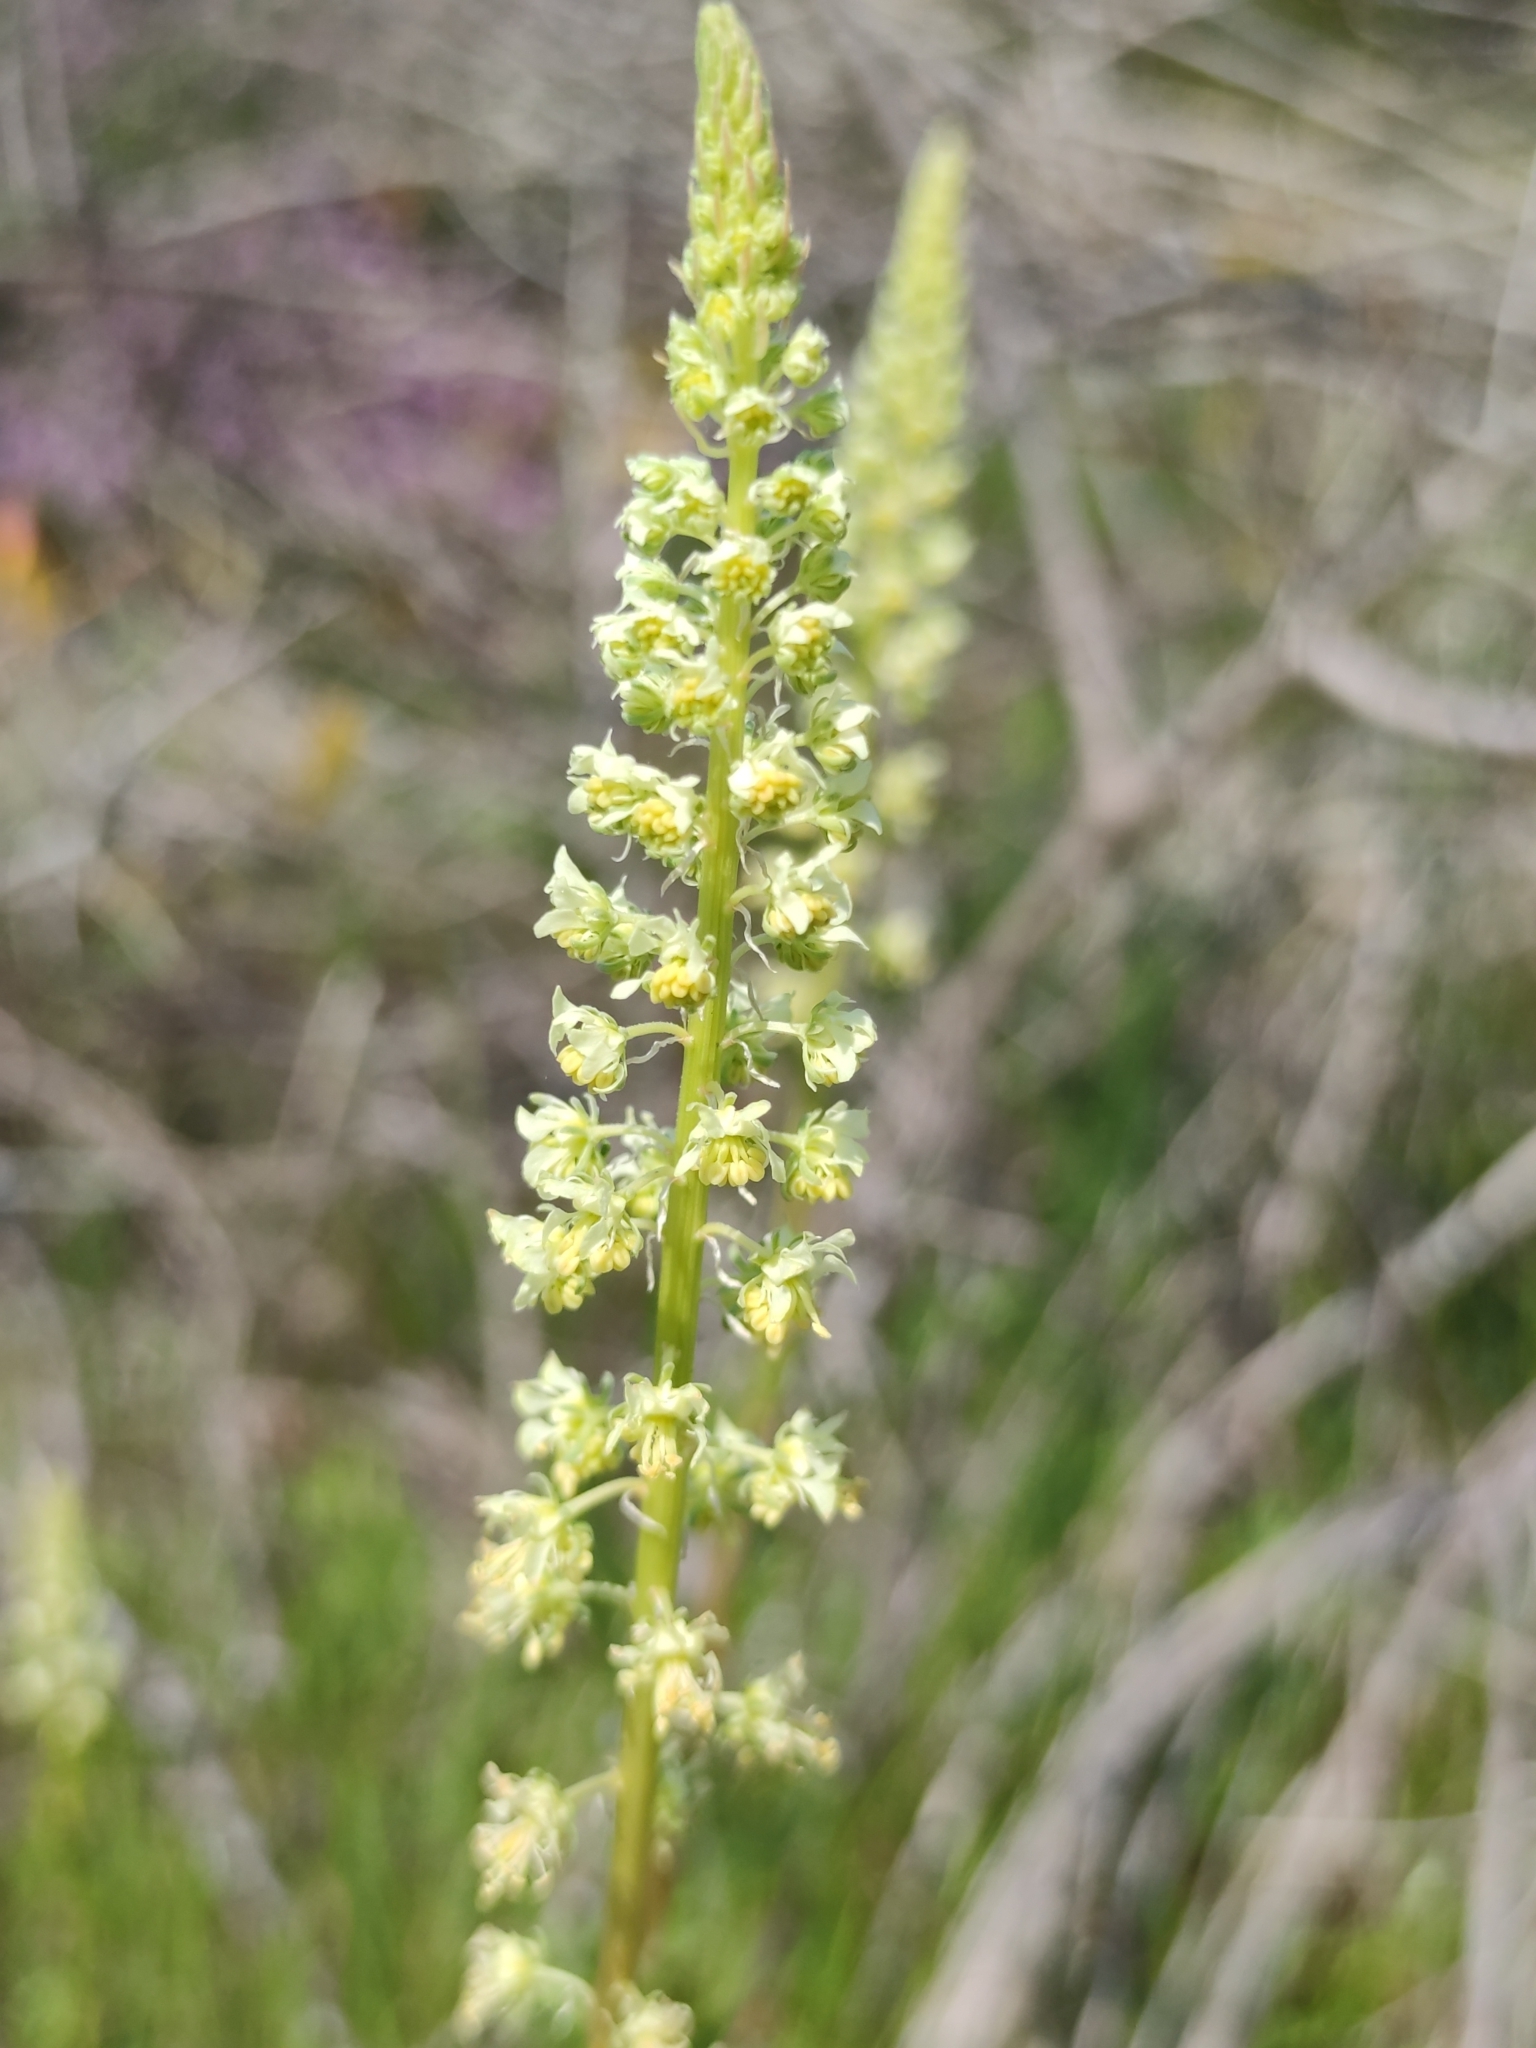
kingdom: Plantae
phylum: Tracheophyta
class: Magnoliopsida
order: Brassicales
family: Resedaceae
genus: Reseda
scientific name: Reseda lutea
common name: Wild mignonette
